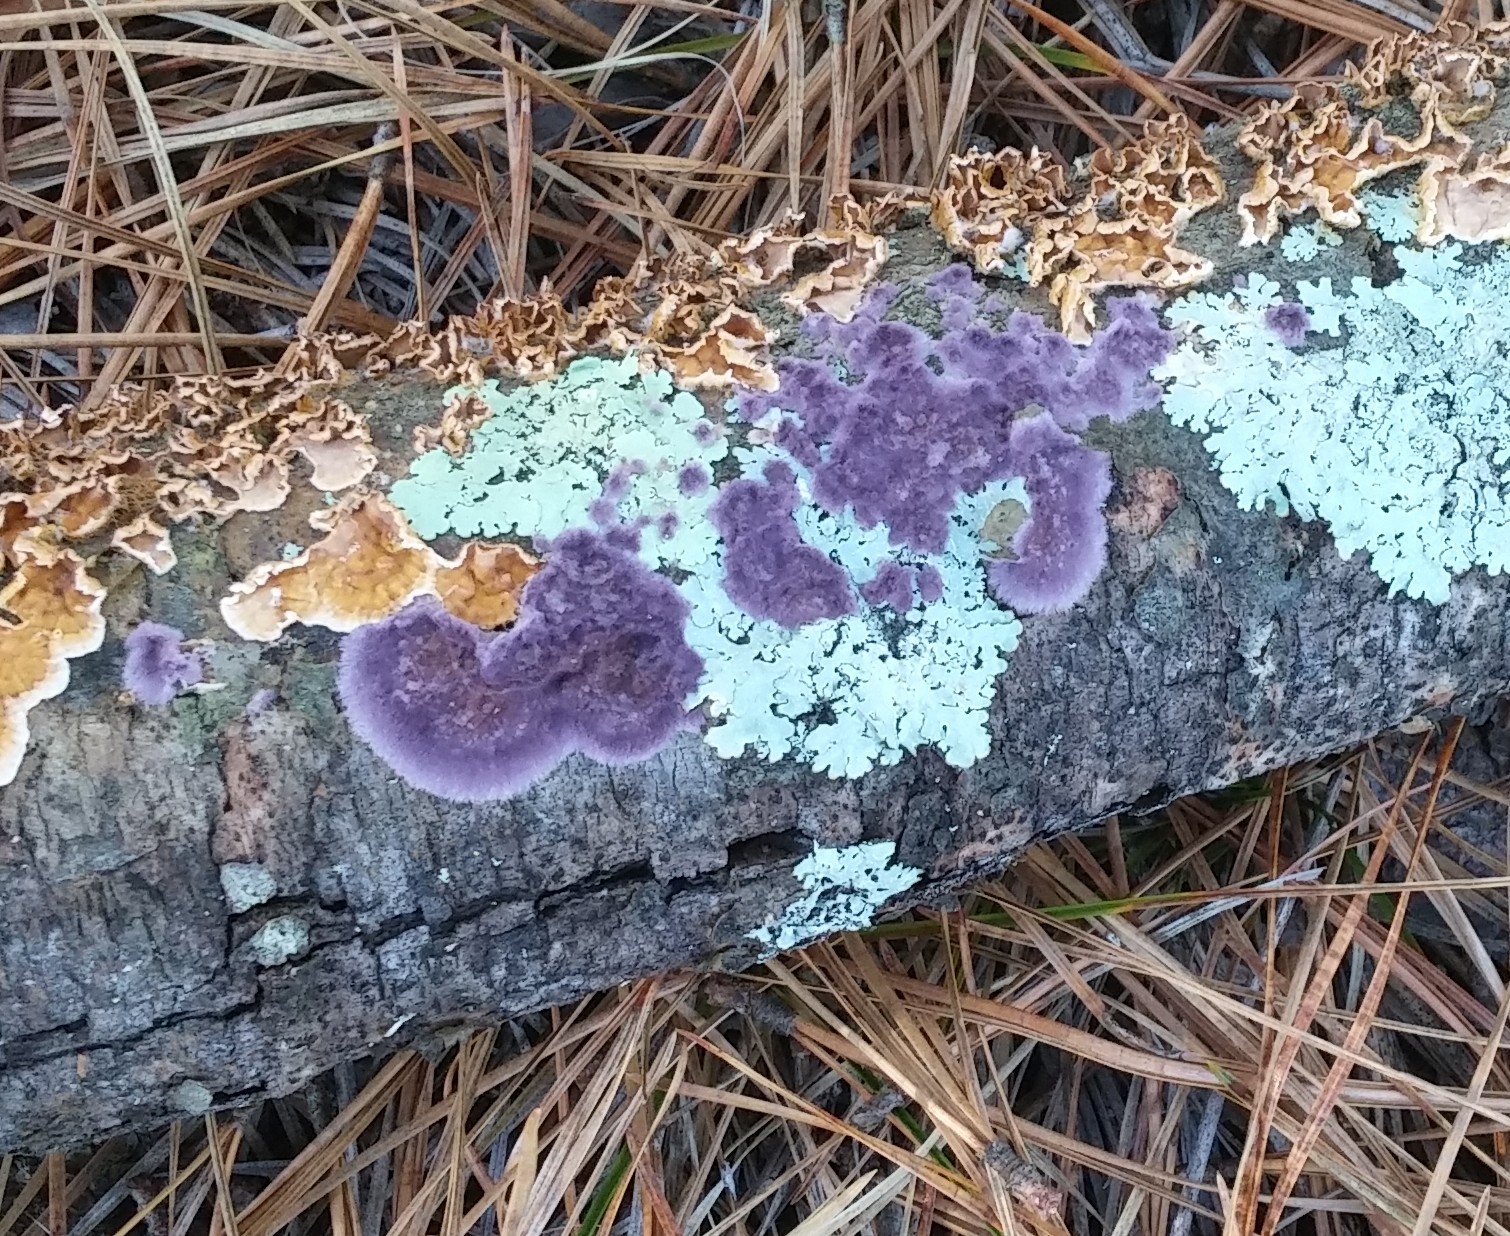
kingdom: Fungi
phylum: Basidiomycota
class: Agaricomycetes
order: Polyporales
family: Phanerochaetaceae
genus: Phlebiopsis
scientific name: Phlebiopsis crassa
